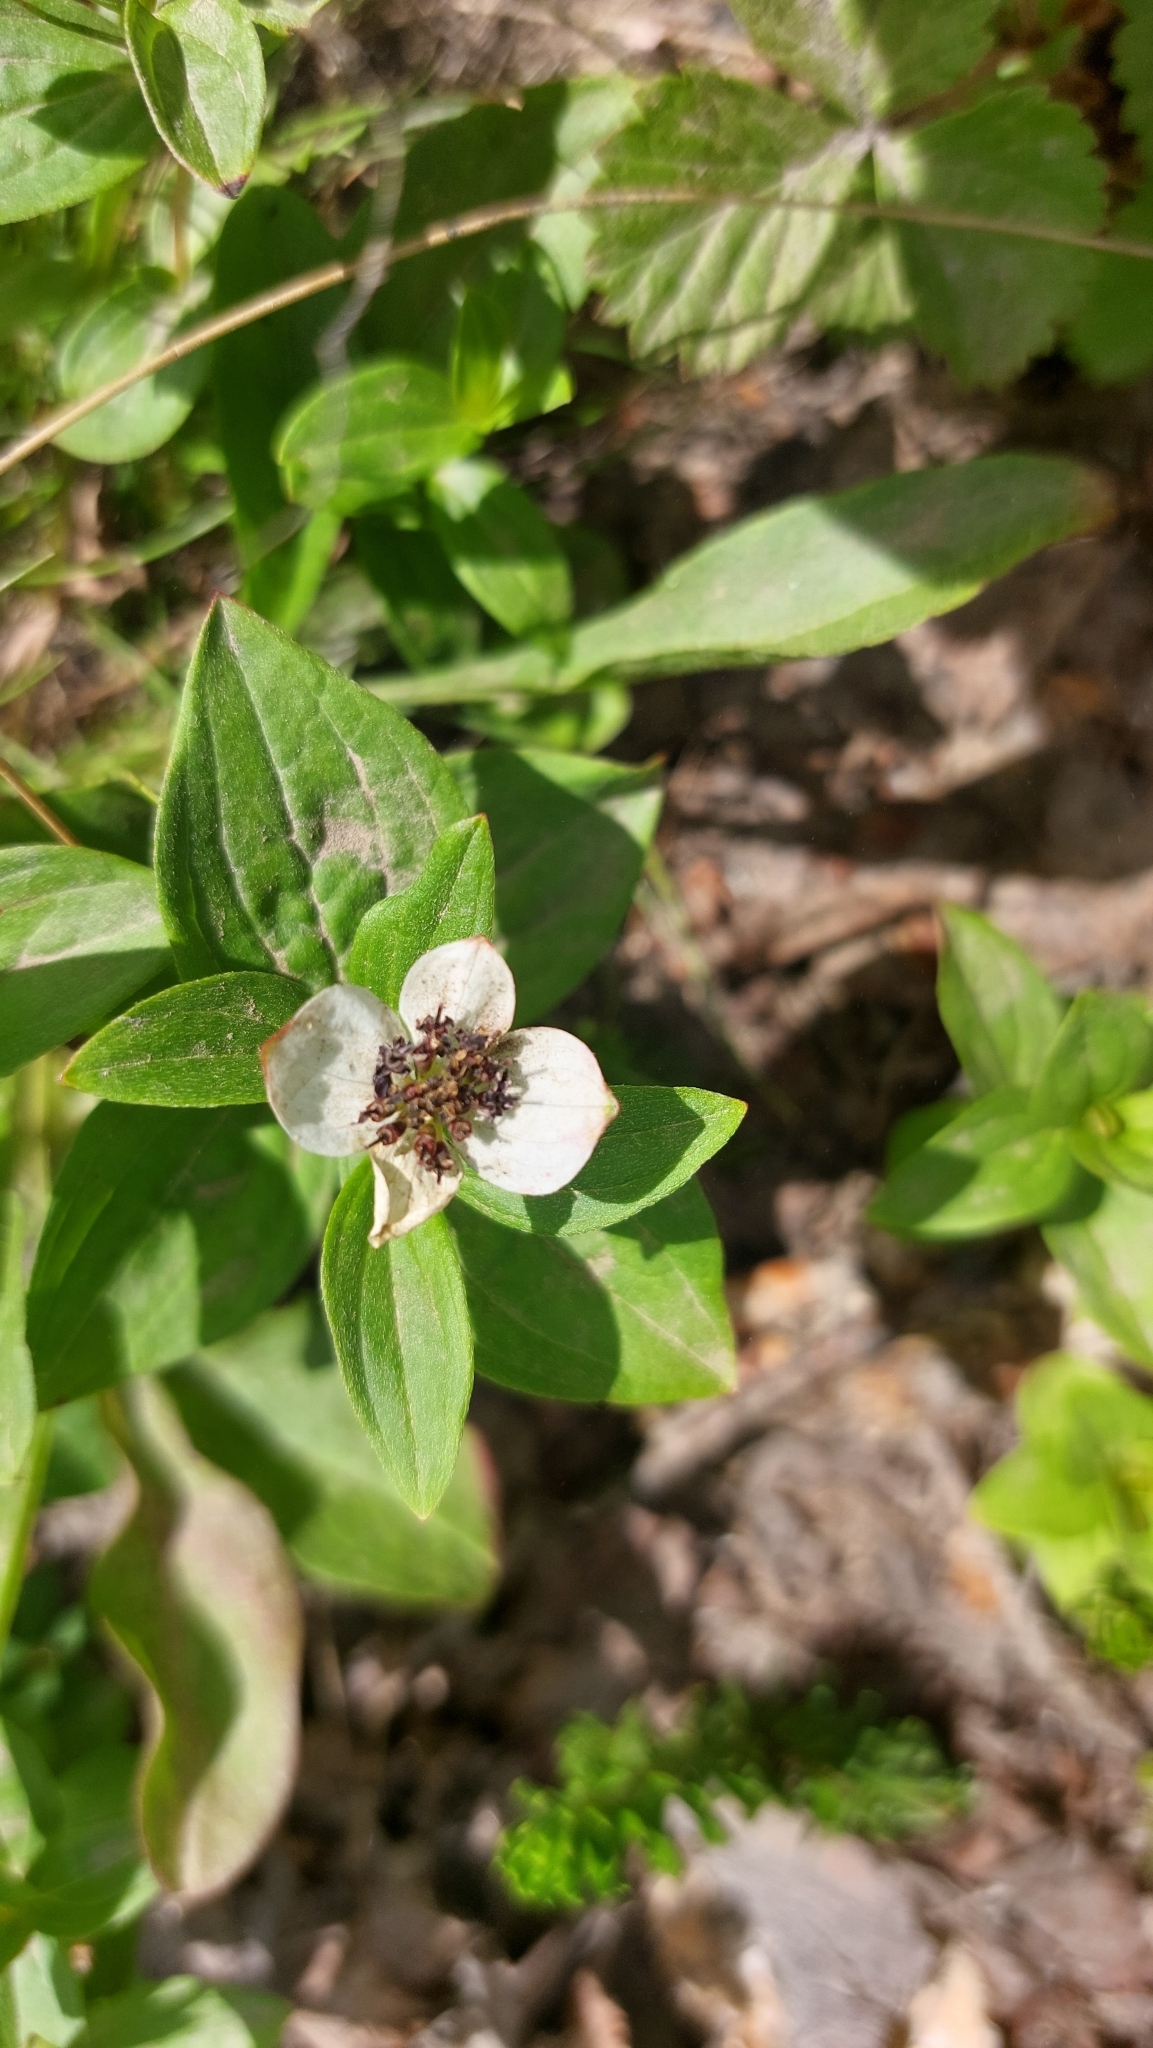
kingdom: Plantae
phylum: Tracheophyta
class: Magnoliopsida
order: Cornales
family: Cornaceae
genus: Cornus
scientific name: Cornus suecica
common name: Dwarf cornel
